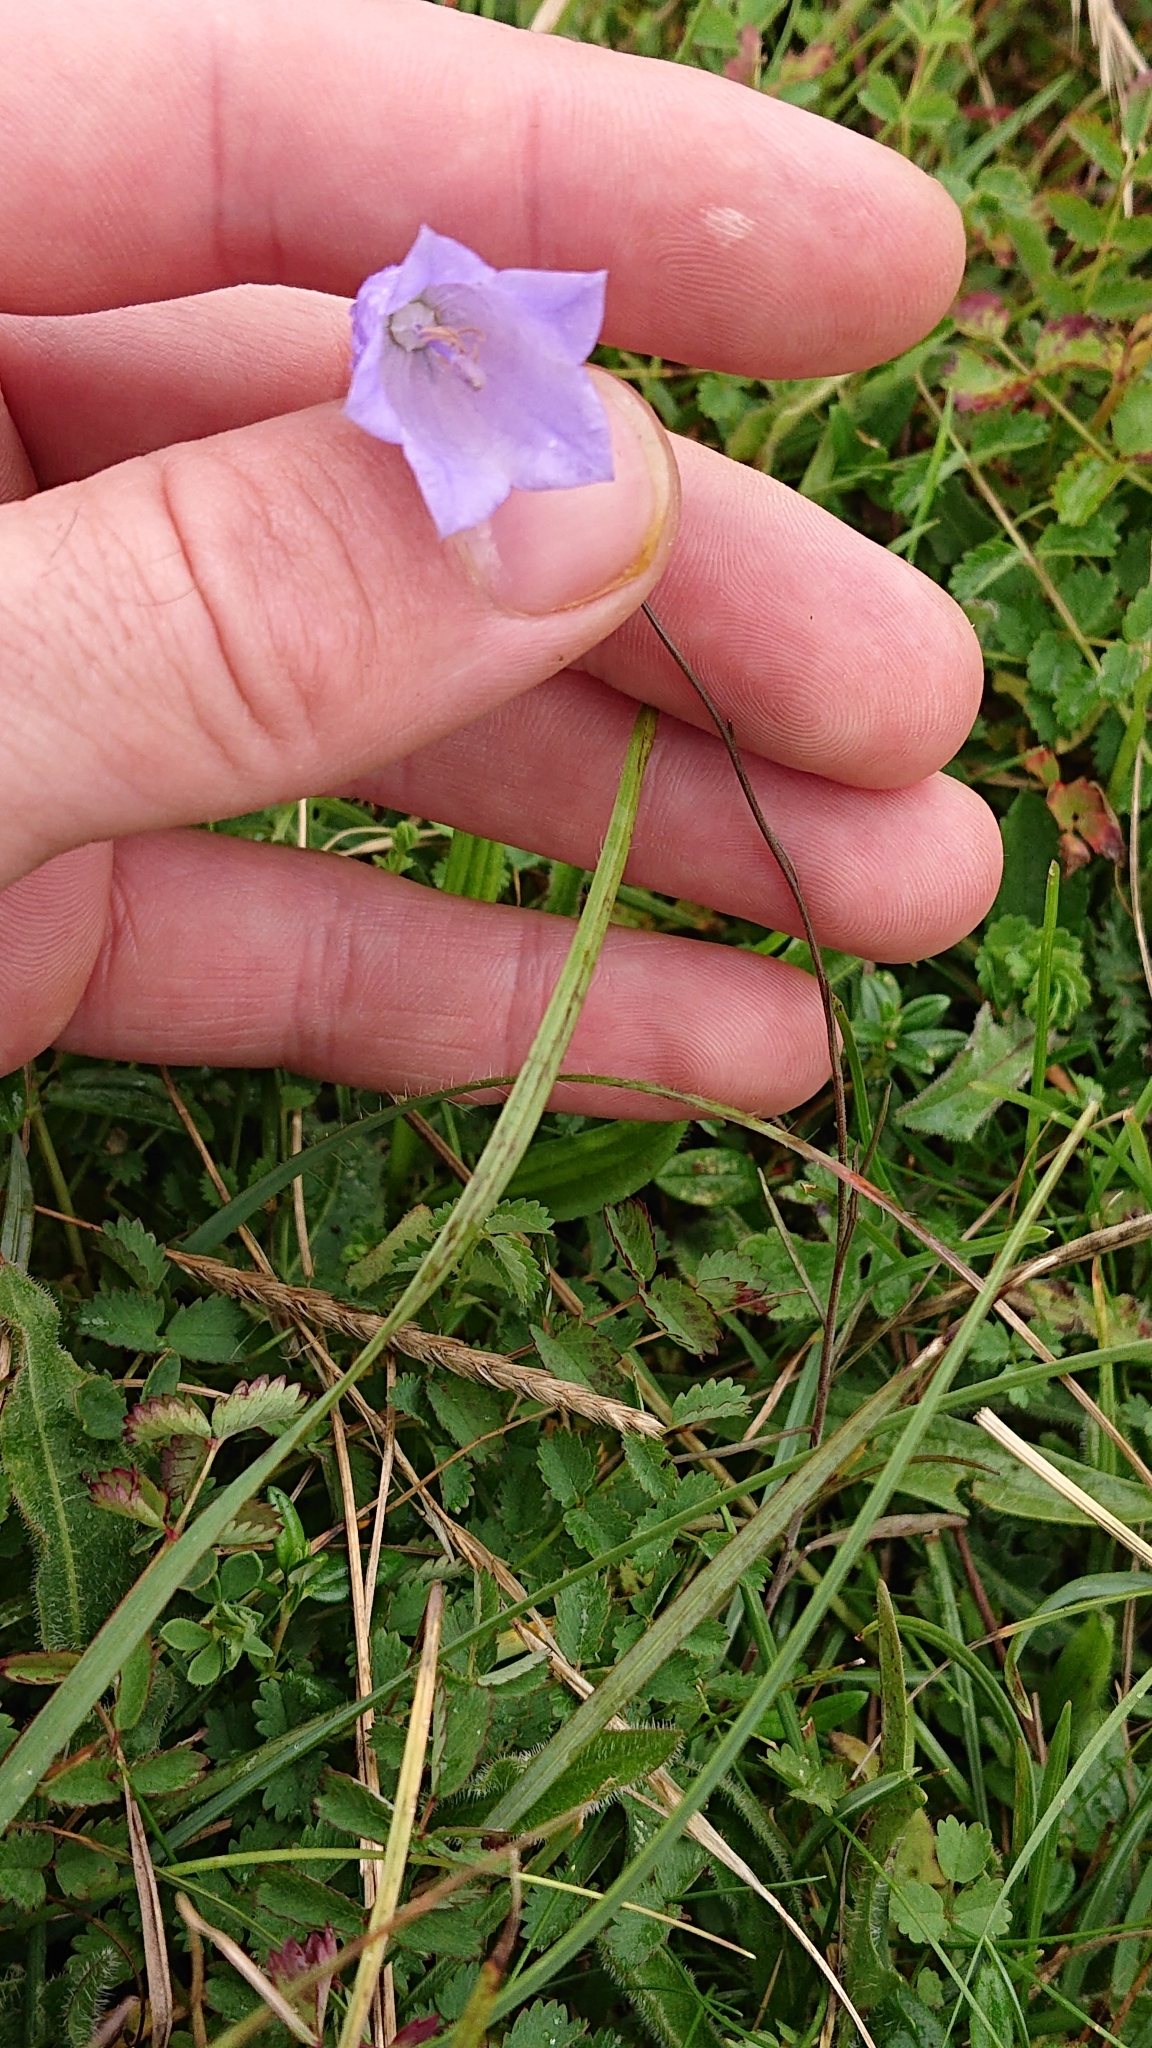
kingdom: Plantae
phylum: Tracheophyta
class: Magnoliopsida
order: Asterales
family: Campanulaceae
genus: Campanula
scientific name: Campanula rotundifolia
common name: Harebell
